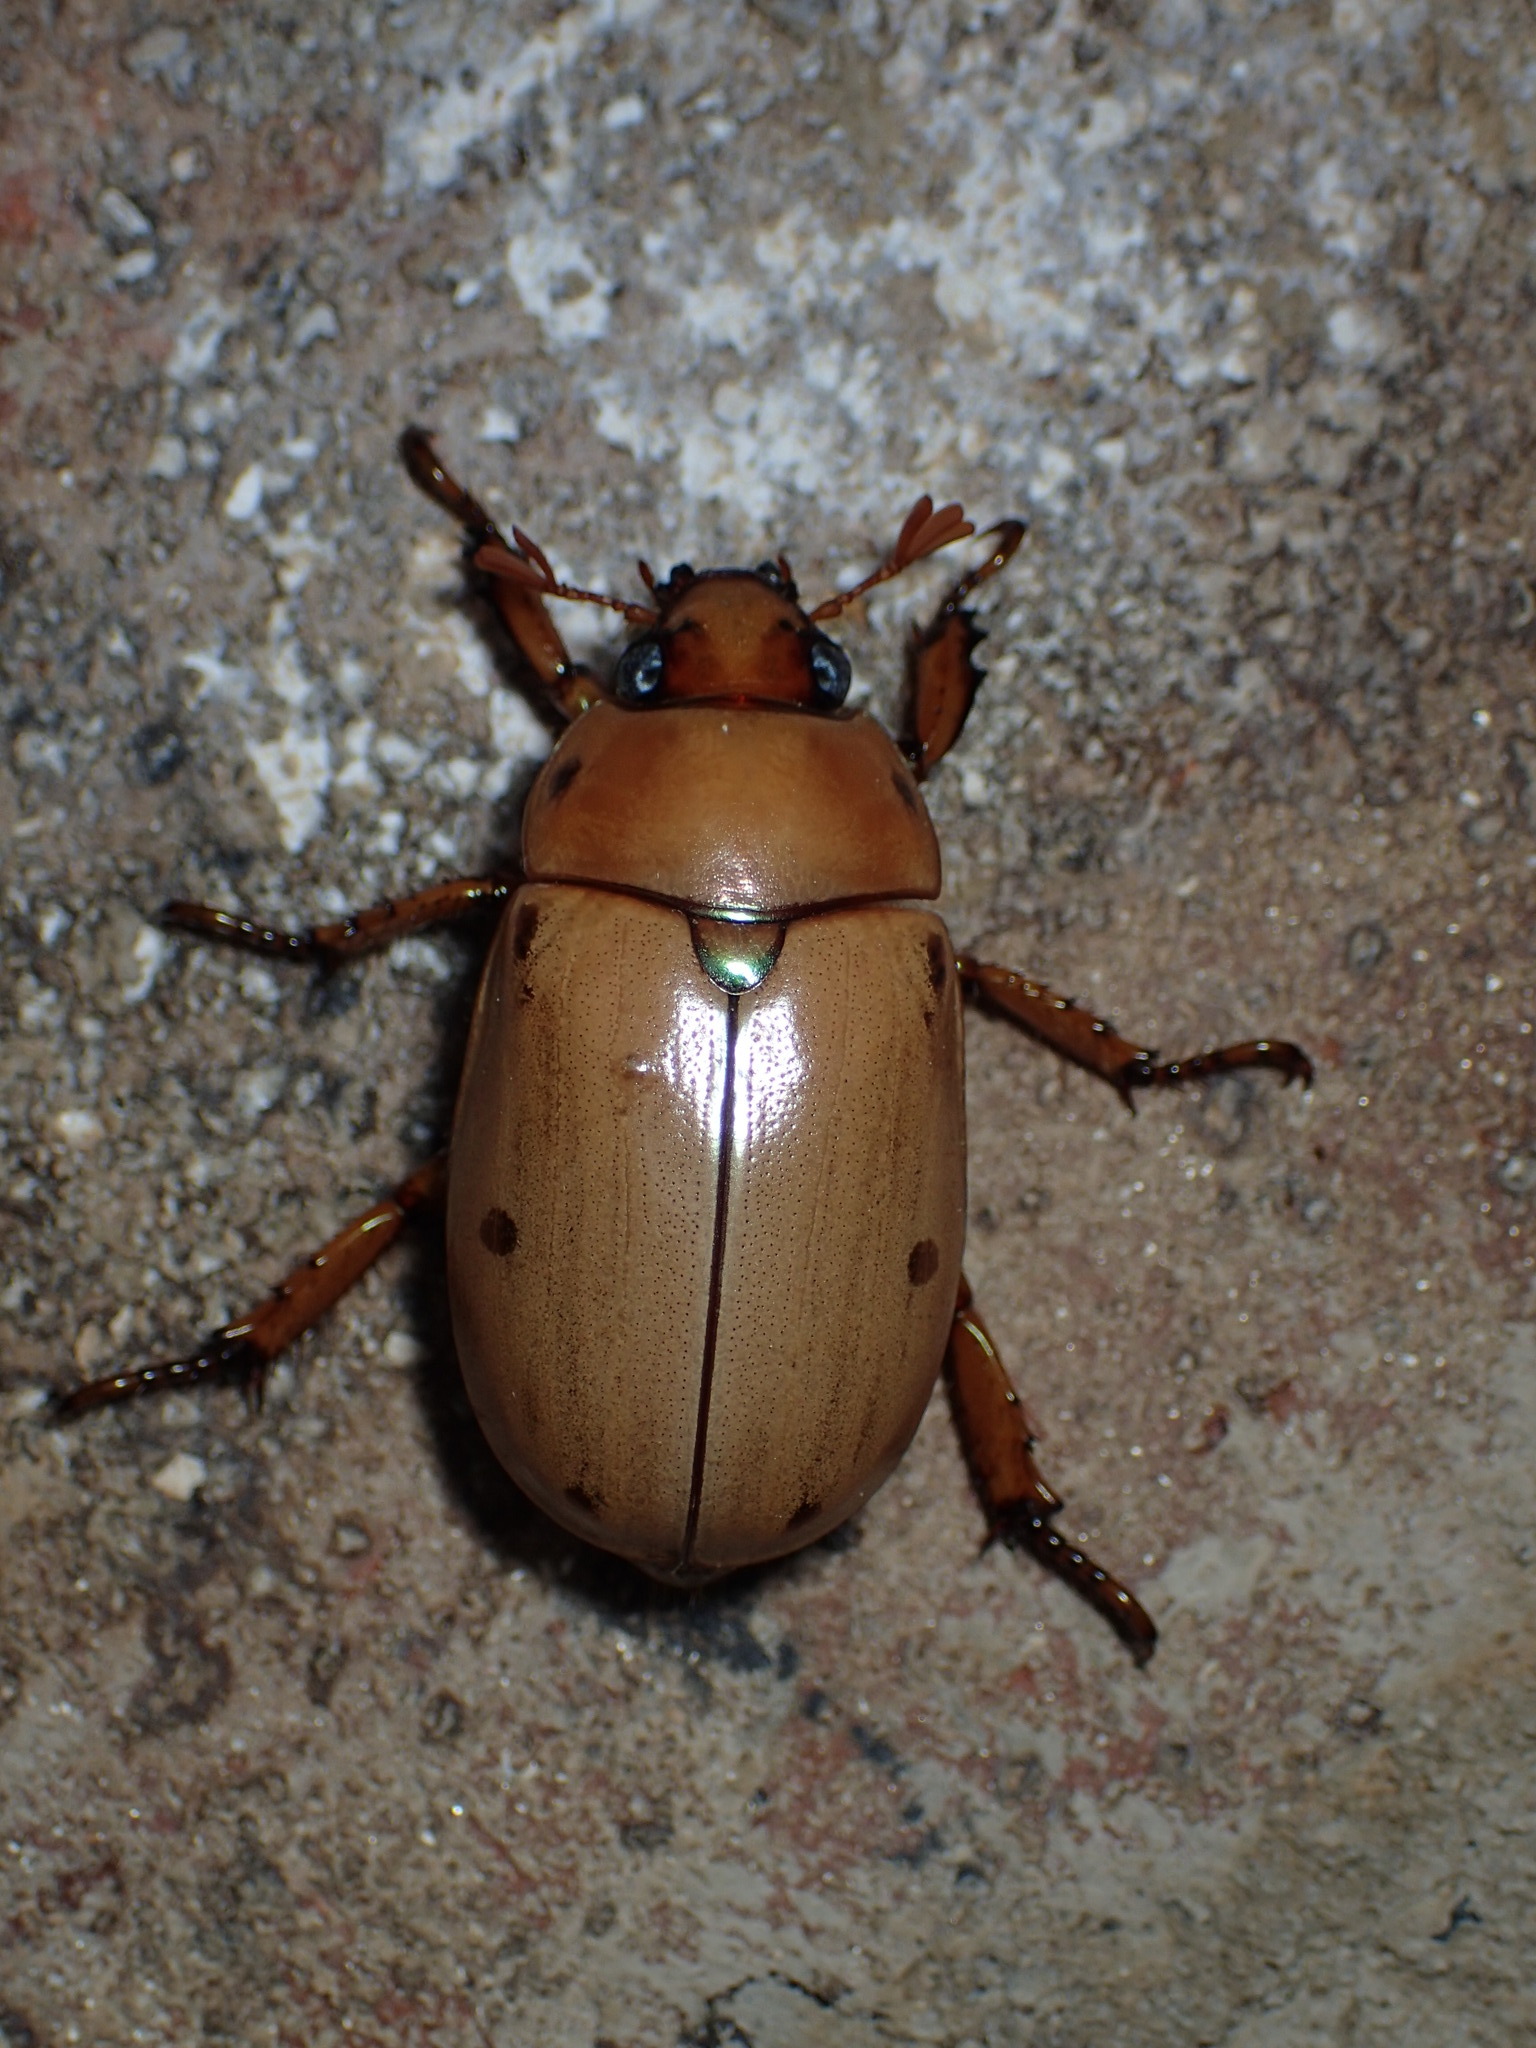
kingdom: Animalia
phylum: Arthropoda
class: Insecta
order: Coleoptera
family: Scarabaeidae
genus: Pelidnota
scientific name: Pelidnota punctata
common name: Grapevine beetle
